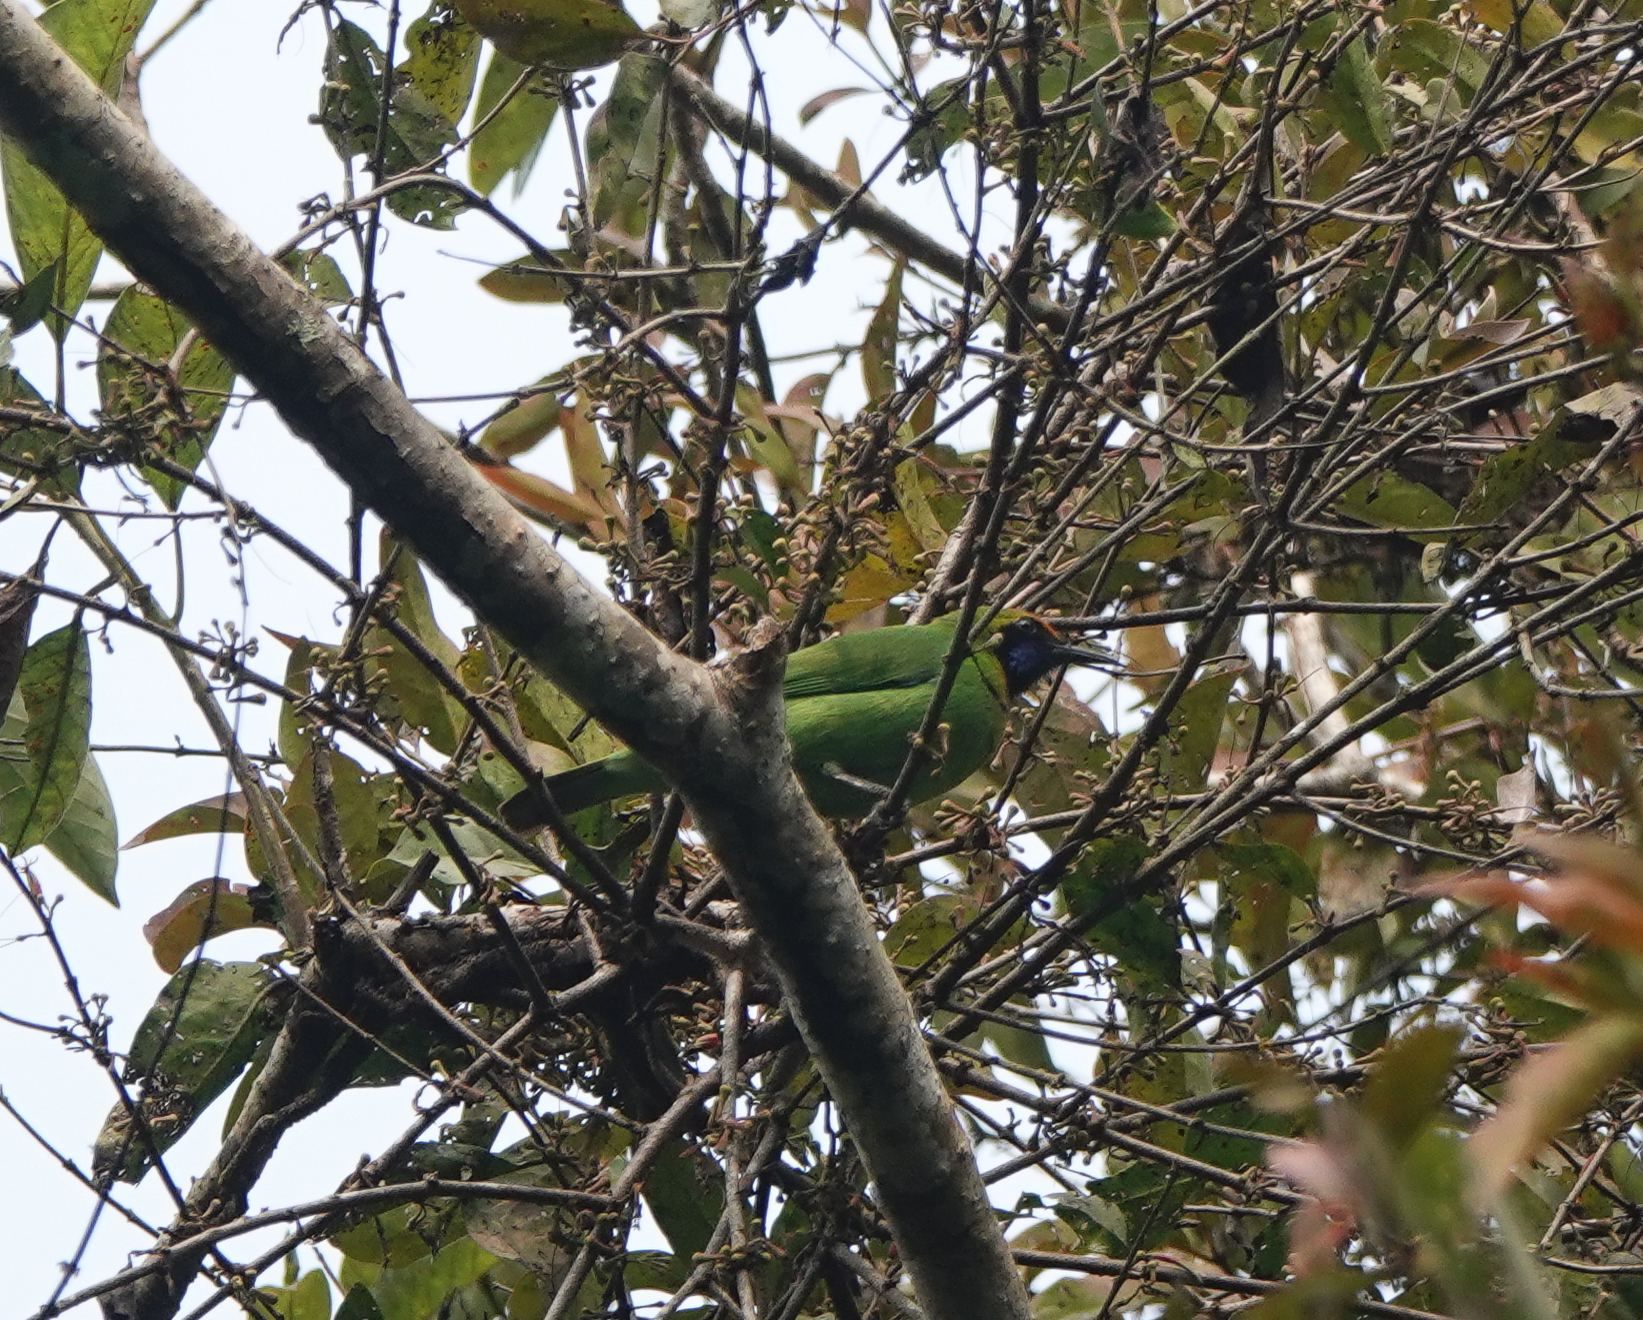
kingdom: Animalia
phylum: Chordata
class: Aves
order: Passeriformes
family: Chloropseidae
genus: Chloropsis
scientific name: Chloropsis aurifrons
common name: Golden-fronted leafbird
